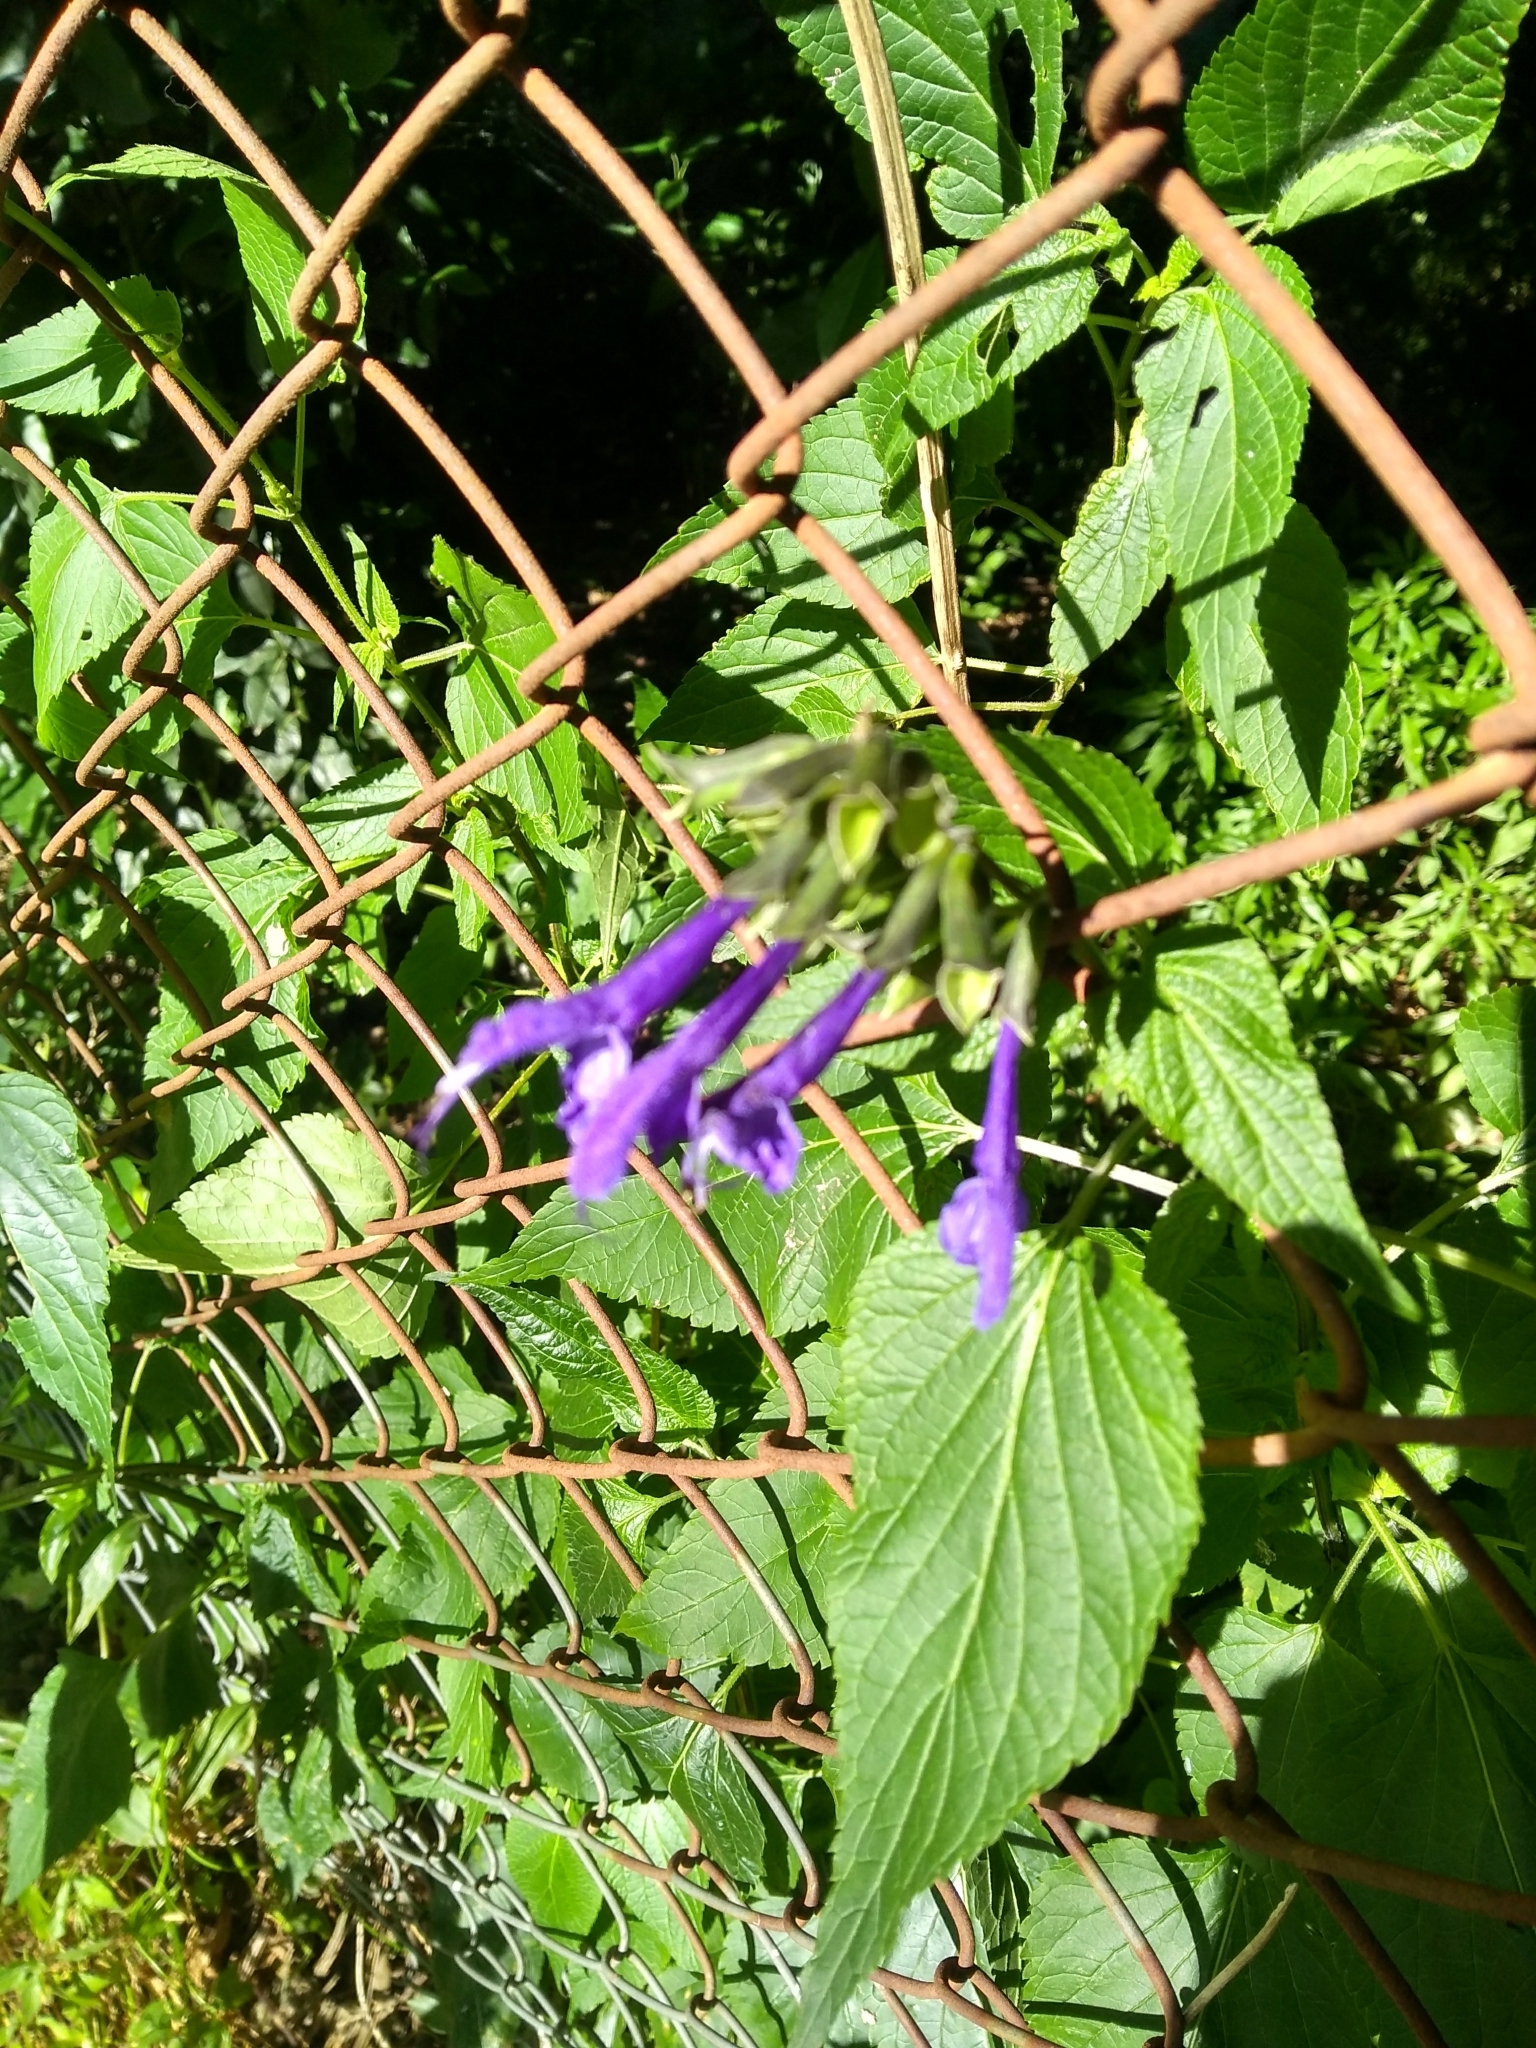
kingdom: Plantae
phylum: Tracheophyta
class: Magnoliopsida
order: Lamiales
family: Lamiaceae
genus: Salvia
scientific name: Salvia guaranitica
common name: Anise-scented sage
